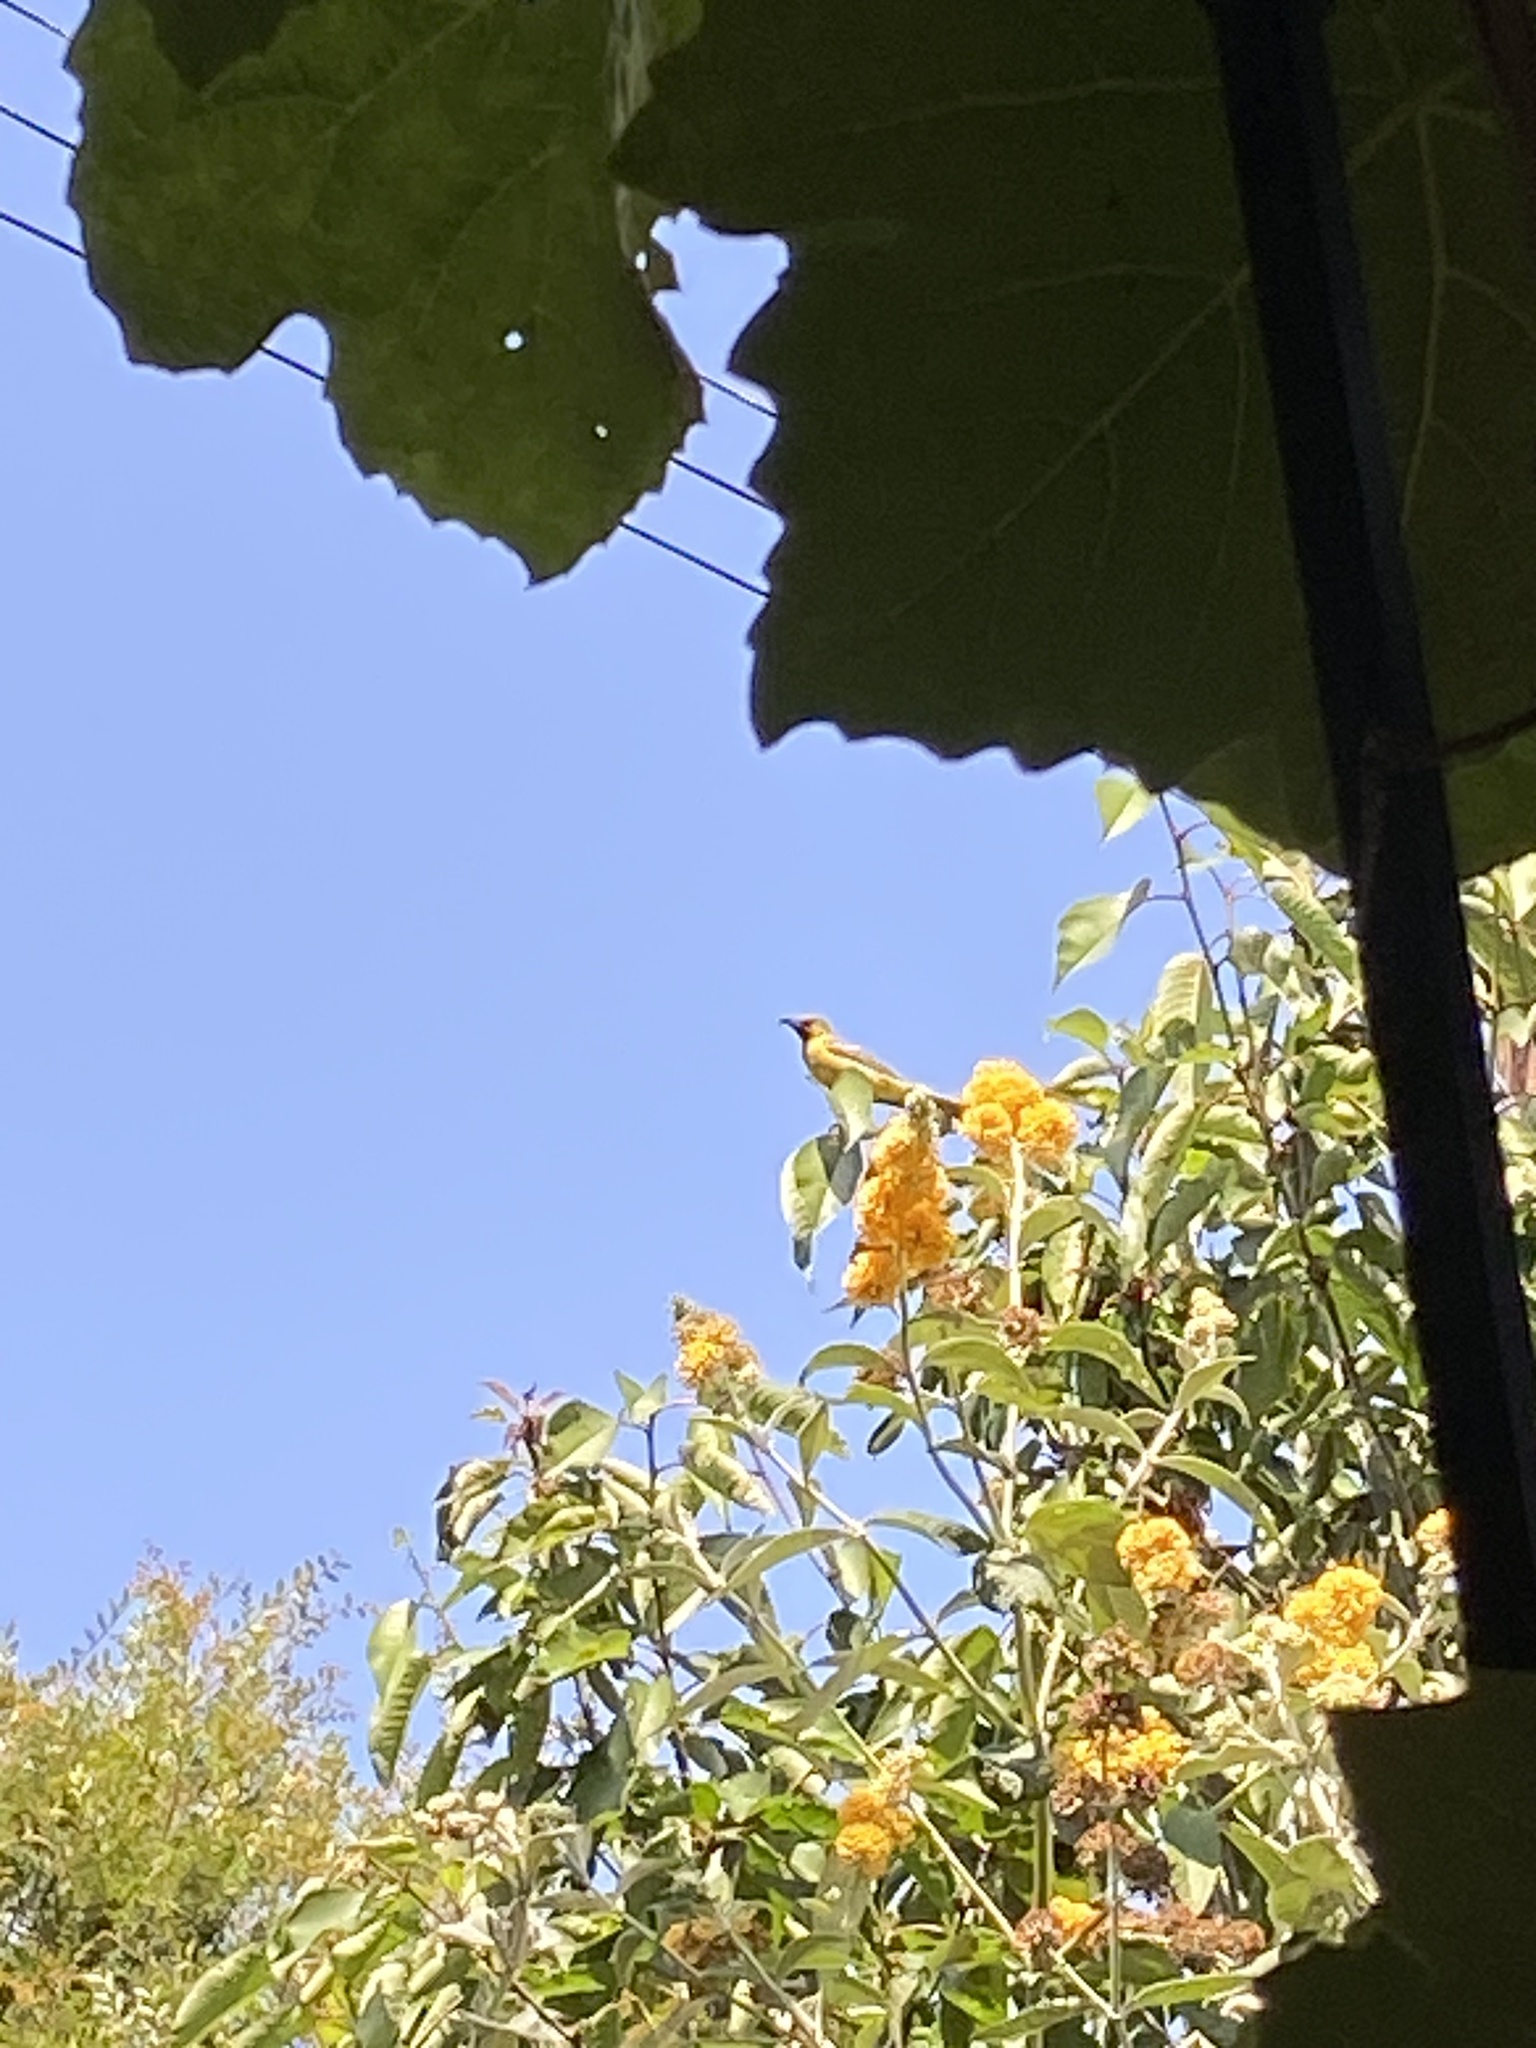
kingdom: Animalia
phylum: Chordata
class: Aves
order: Passeriformes
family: Icteridae
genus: Icterus
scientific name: Icterus cucullatus
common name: Hooded oriole
